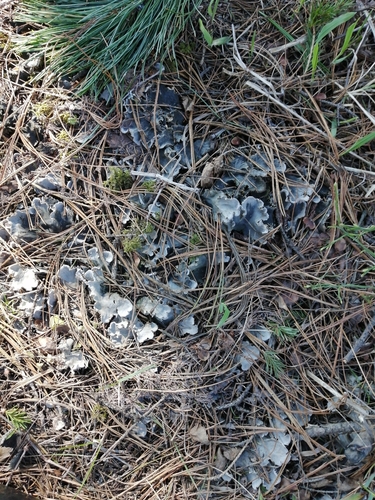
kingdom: Fungi
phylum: Ascomycota
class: Lecanoromycetes
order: Peltigerales
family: Peltigeraceae
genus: Peltigera
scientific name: Peltigera
